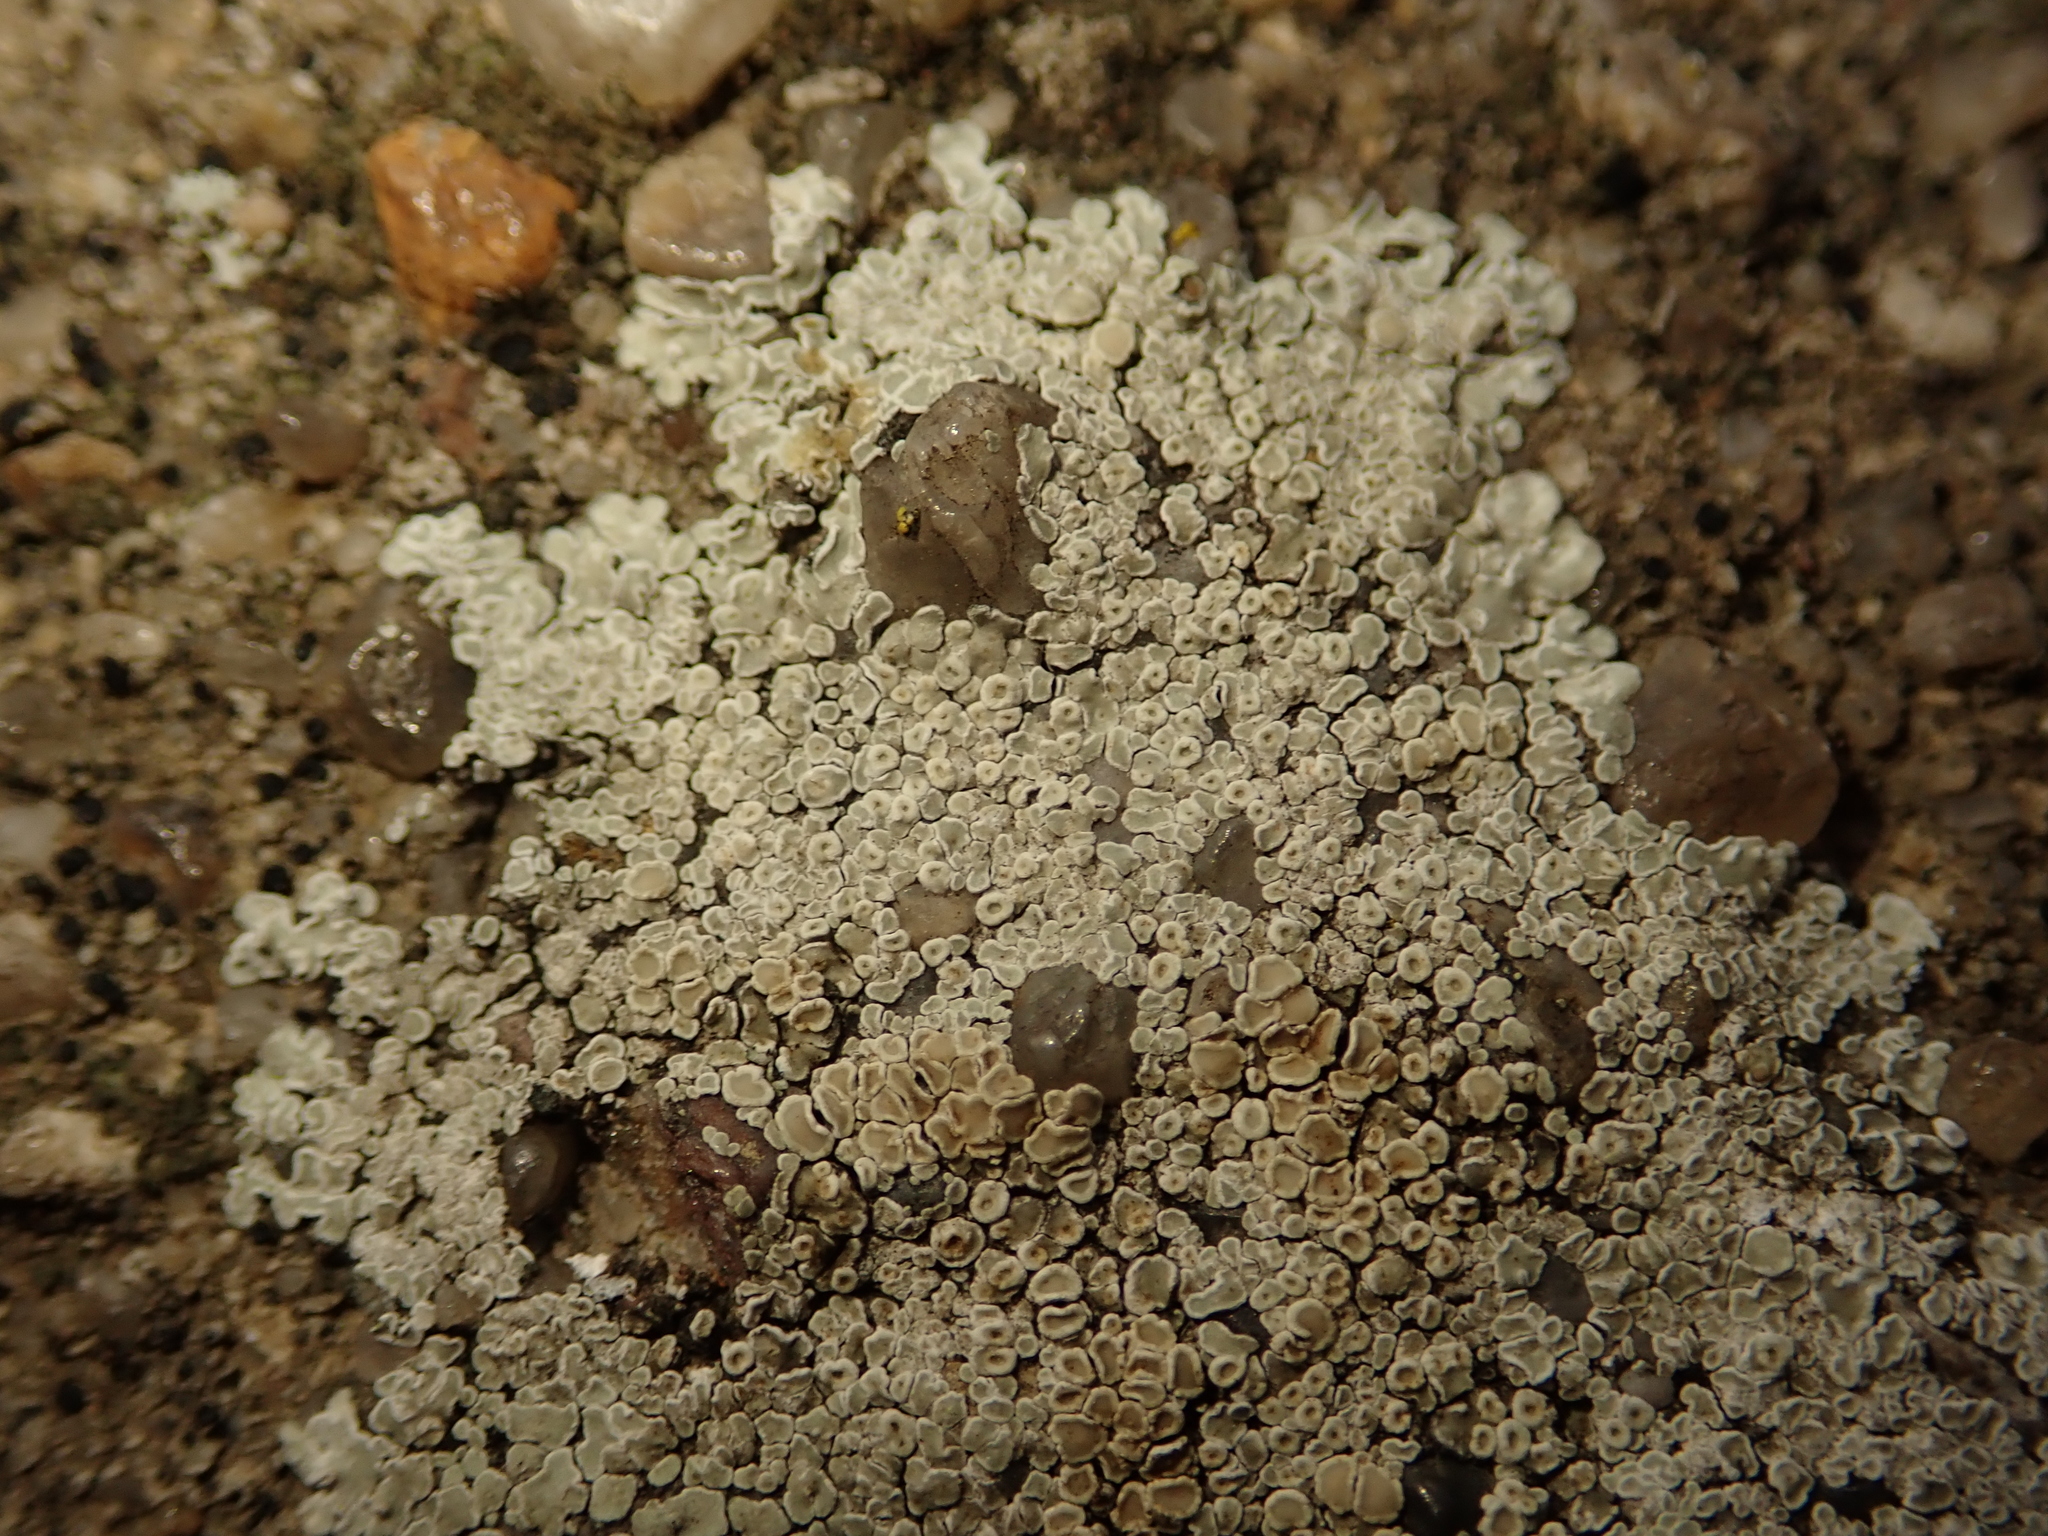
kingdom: Fungi
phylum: Ascomycota
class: Lecanoromycetes
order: Lecanorales
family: Lecanoraceae
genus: Protoparmeliopsis
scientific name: Protoparmeliopsis muralis
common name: Stonewall rim lichen
